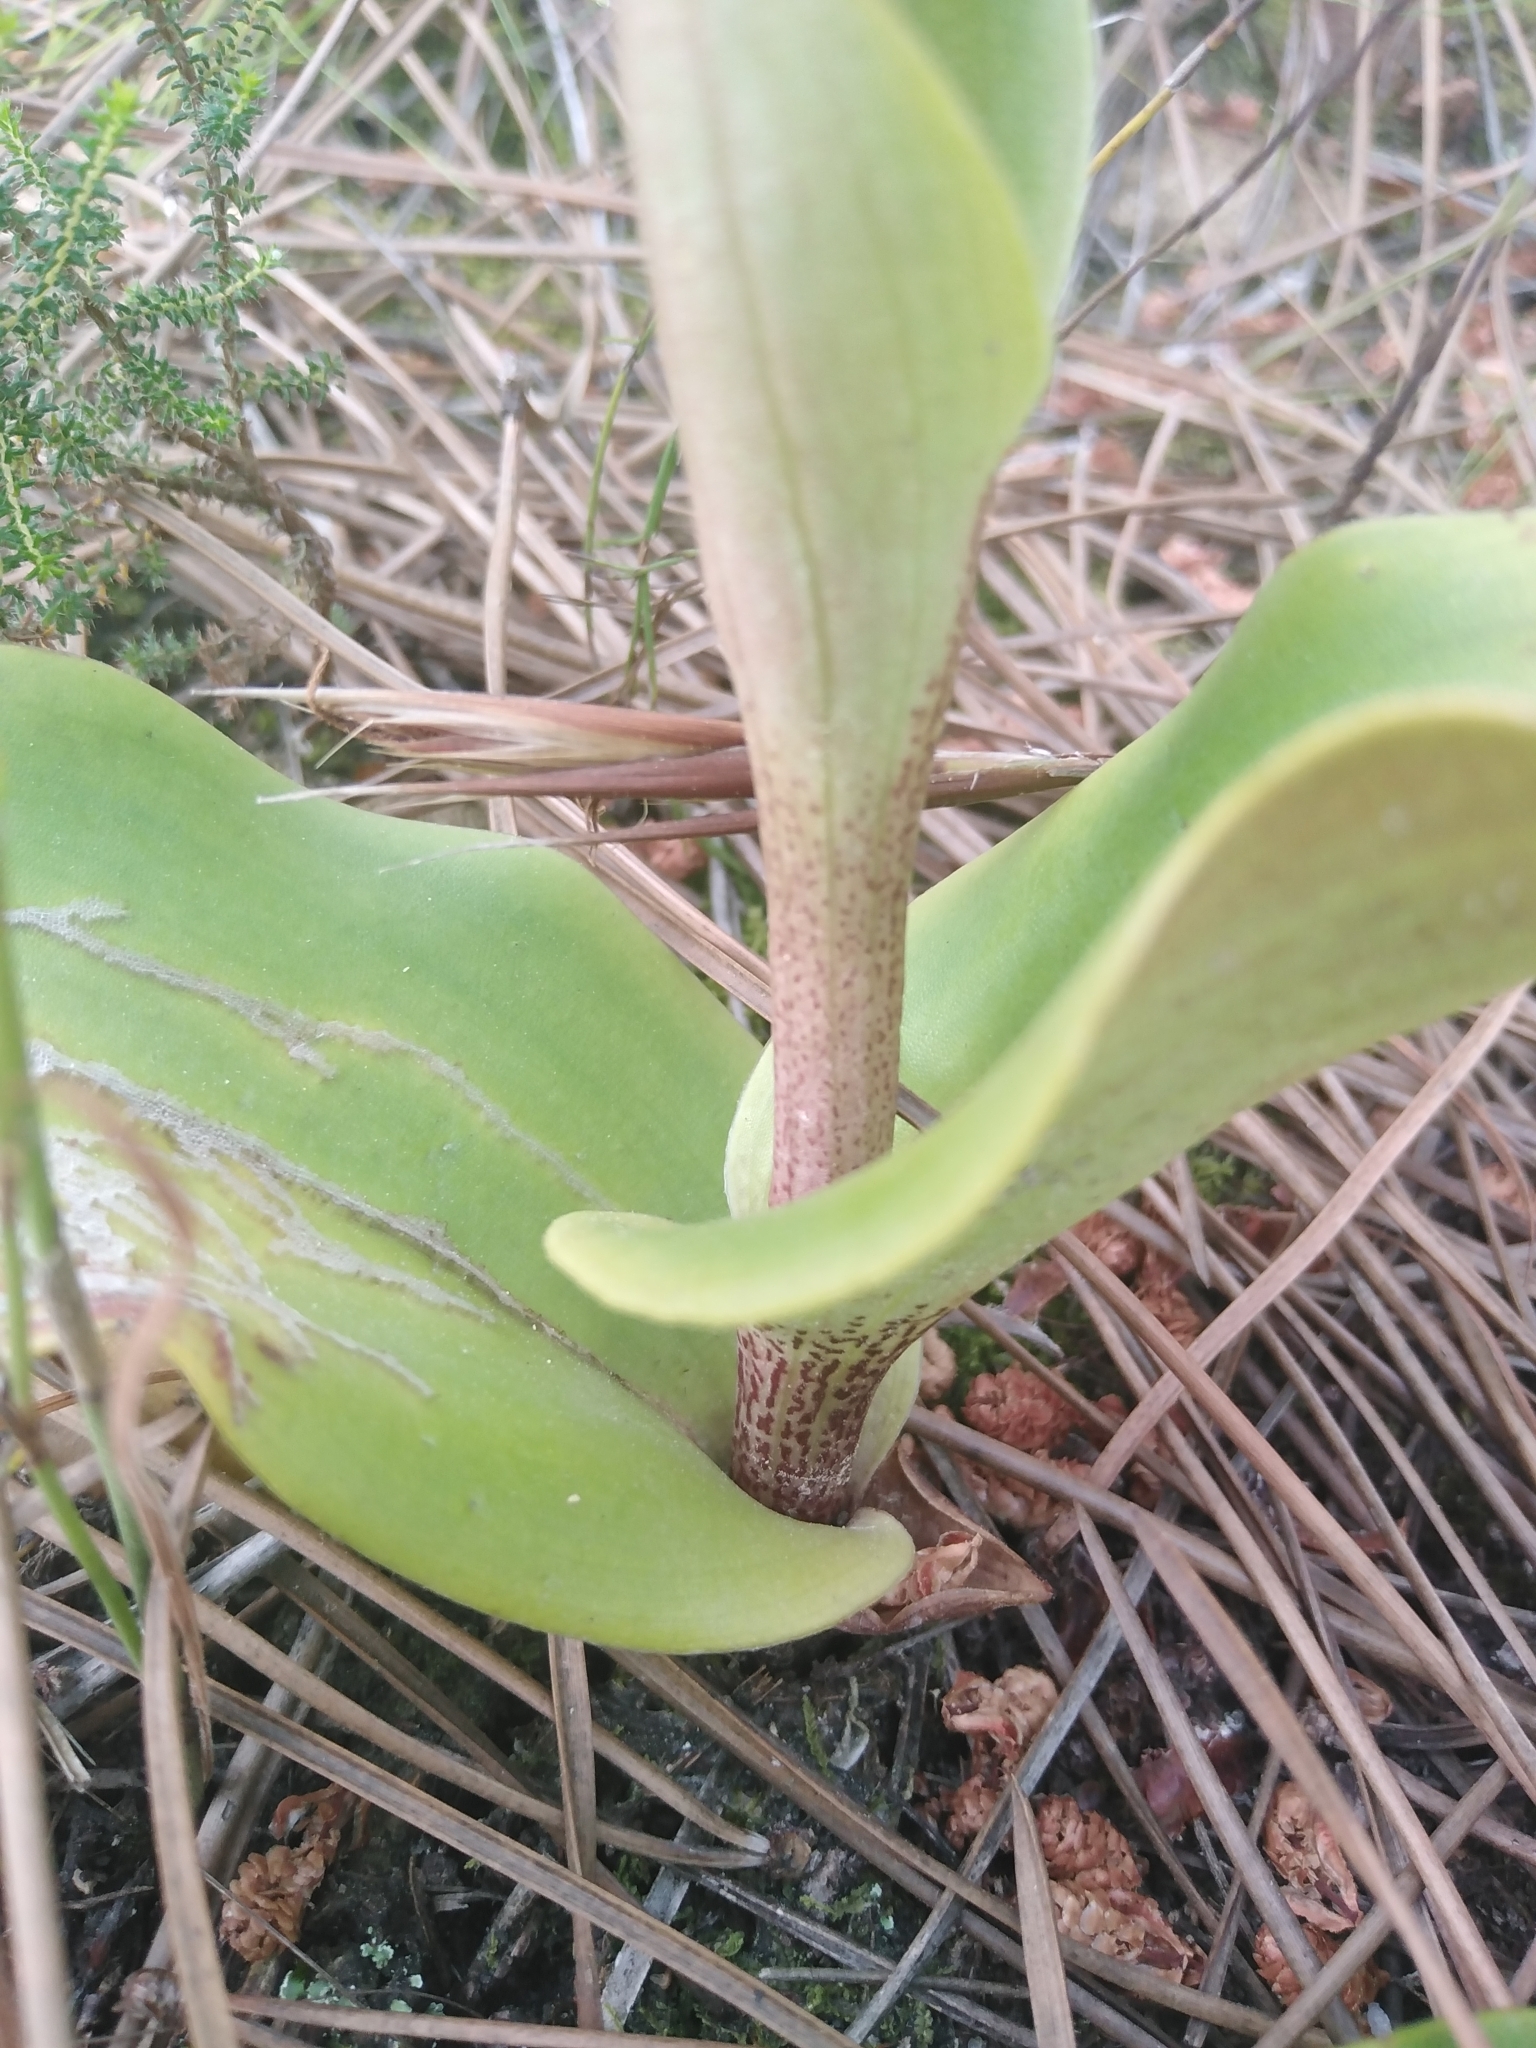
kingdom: Plantae
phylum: Tracheophyta
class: Liliopsida
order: Asparagales
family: Orchidaceae
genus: Satyrium
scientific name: Satyrium coriifolium
